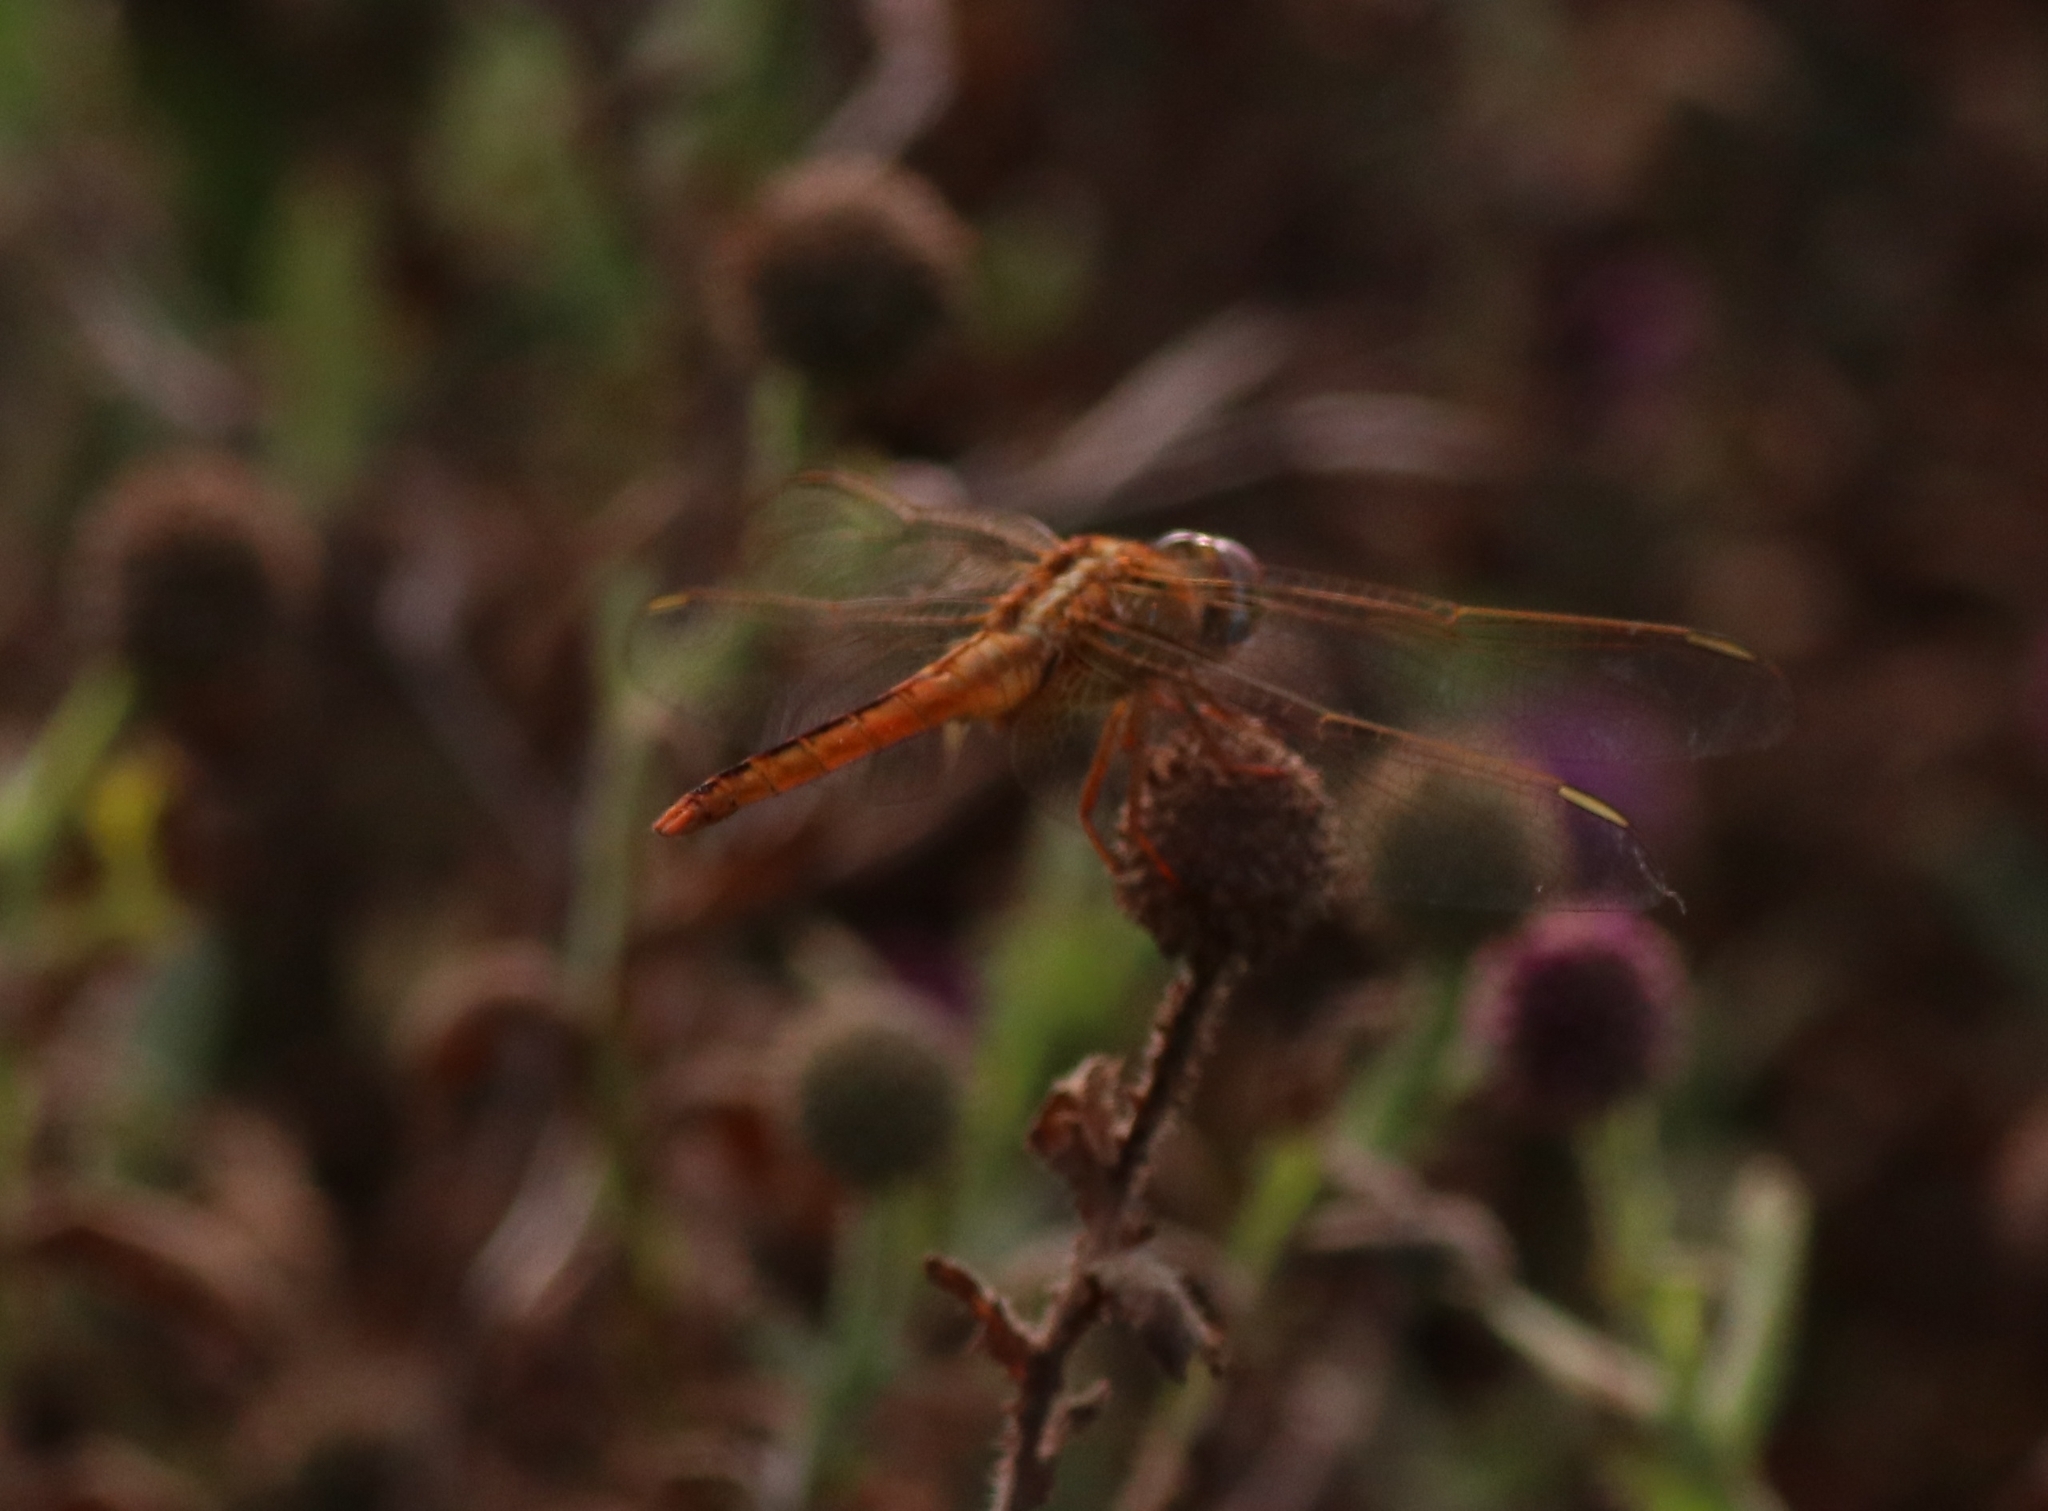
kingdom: Animalia
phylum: Arthropoda
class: Insecta
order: Odonata
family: Libellulidae
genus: Crocothemis
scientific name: Crocothemis servilia
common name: Scarlet skimmer
